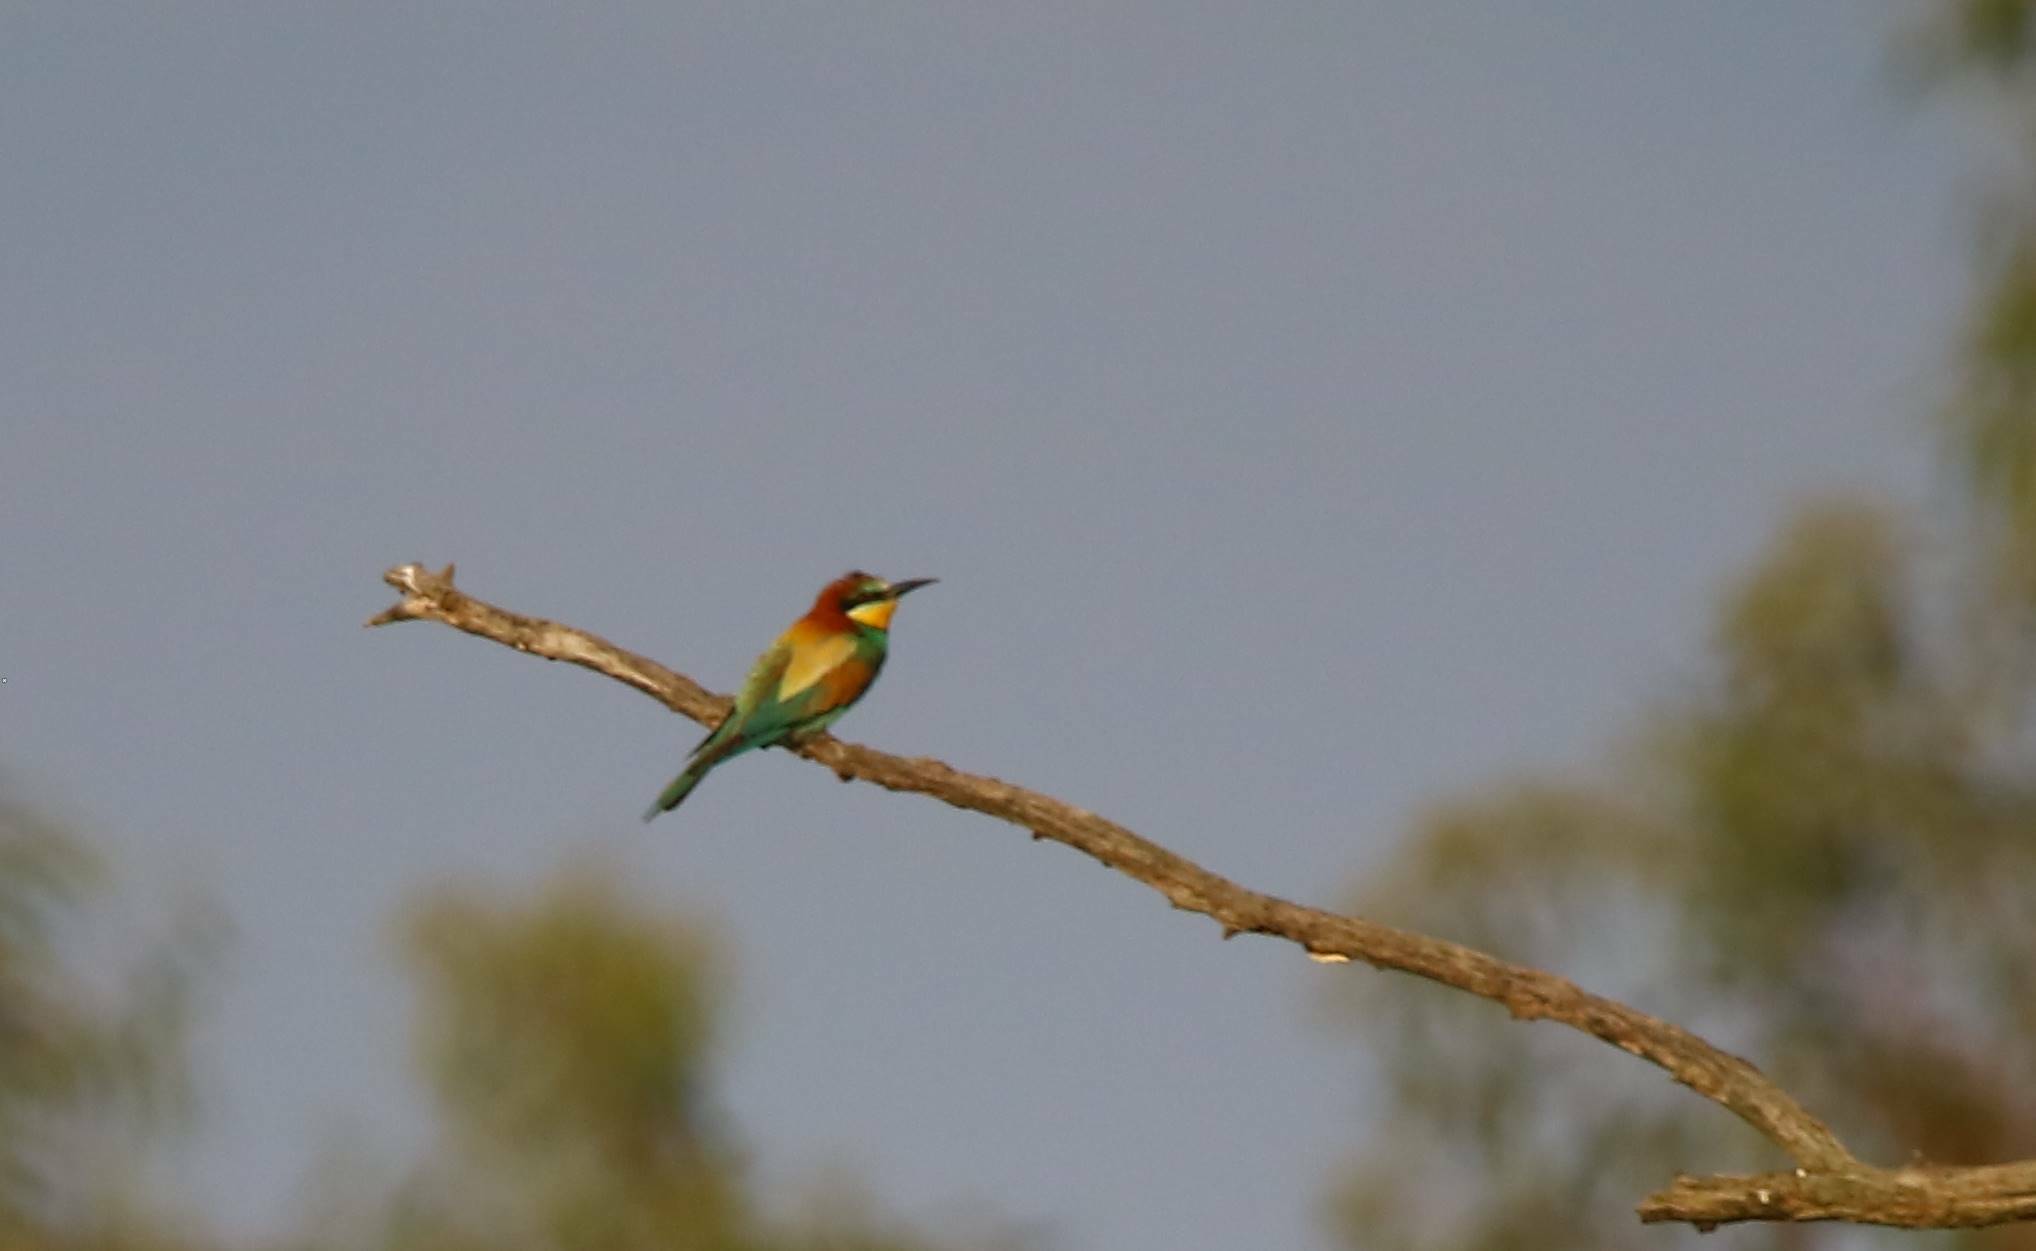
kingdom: Animalia
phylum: Chordata
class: Aves
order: Coraciiformes
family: Meropidae
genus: Merops
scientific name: Merops apiaster
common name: European bee-eater
